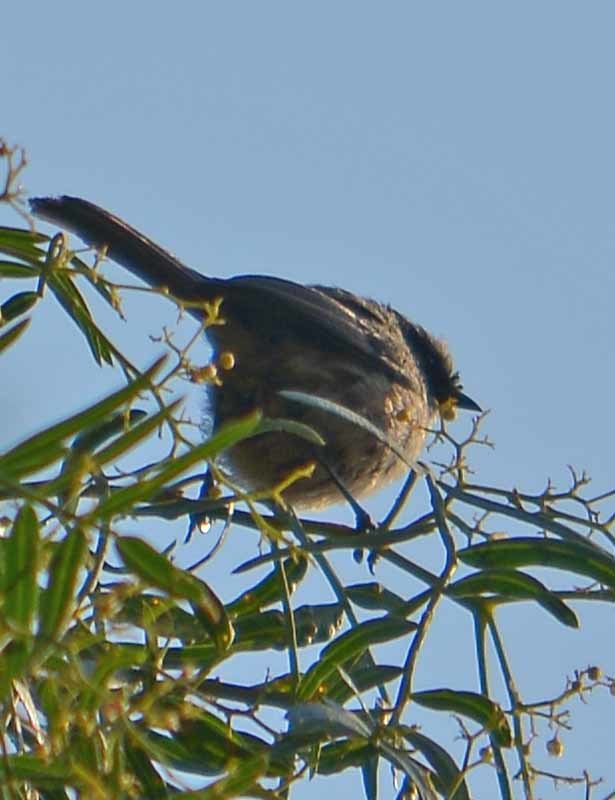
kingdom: Animalia
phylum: Chordata
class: Aves
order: Passeriformes
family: Aegithalidae
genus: Psaltriparus
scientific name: Psaltriparus minimus
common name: American bushtit
